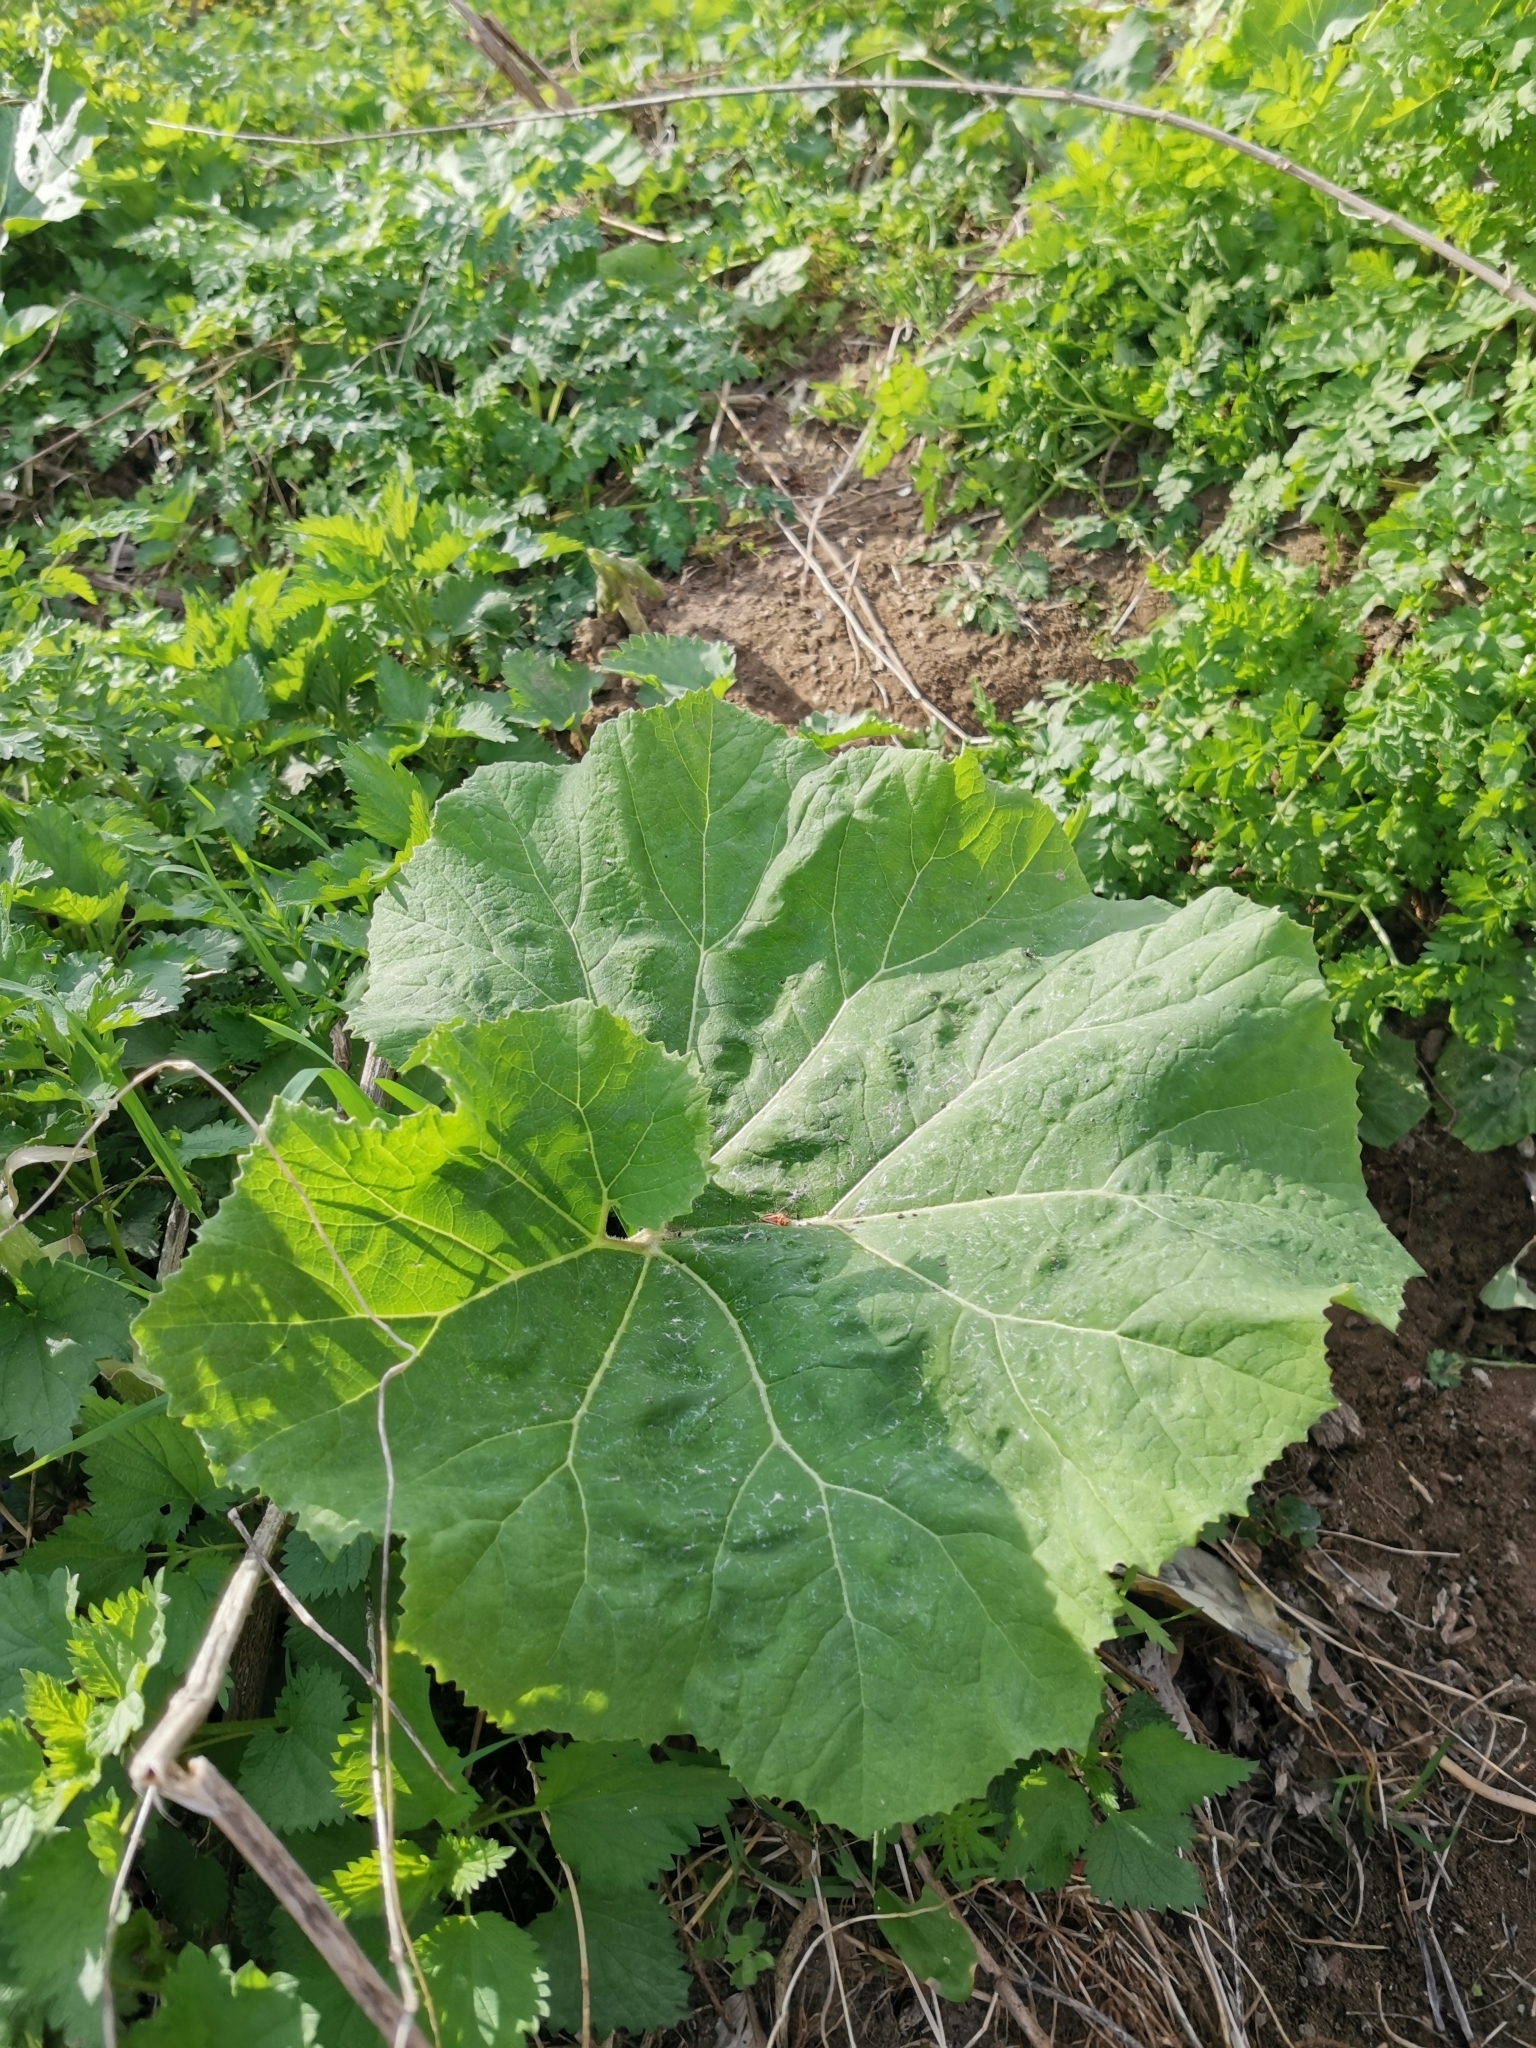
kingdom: Plantae
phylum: Tracheophyta
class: Magnoliopsida
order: Asterales
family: Asteraceae
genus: Petasites
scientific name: Petasites hybridus
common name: Butterbur
